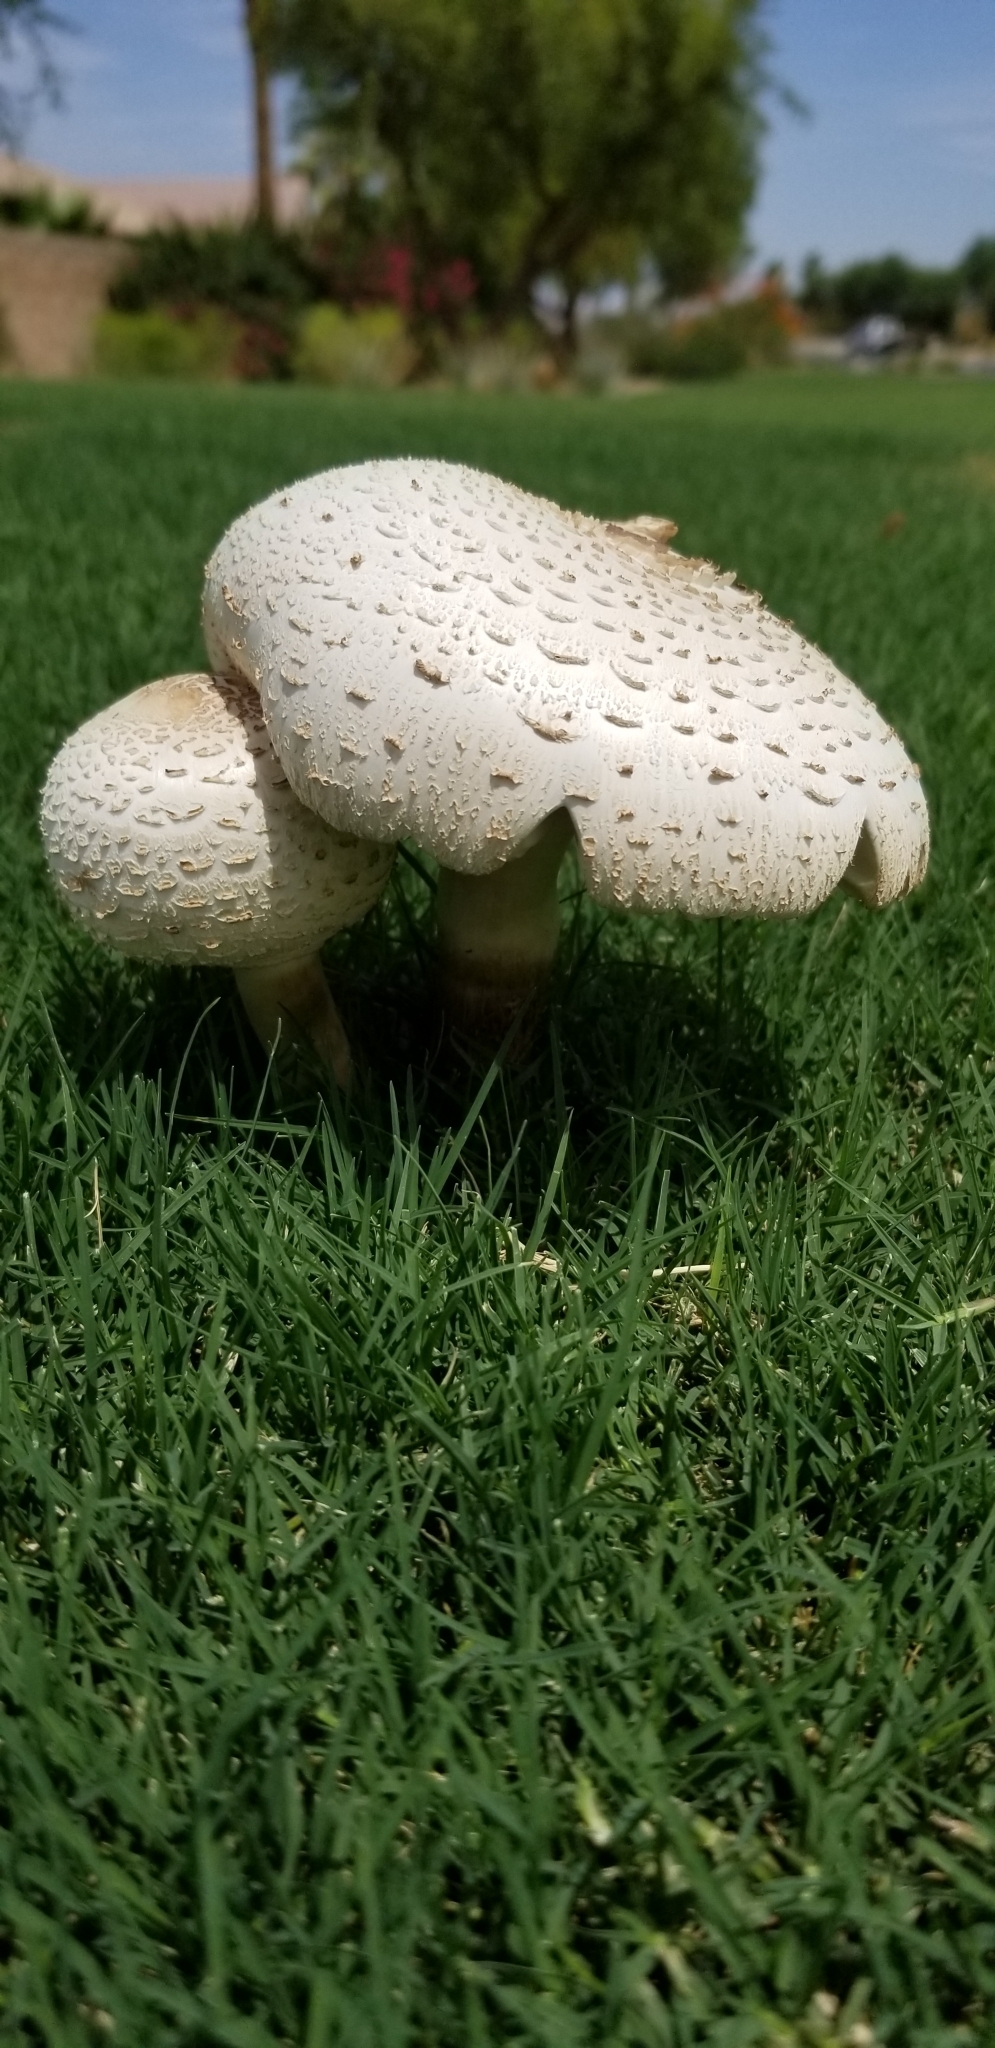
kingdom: Fungi
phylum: Basidiomycota
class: Agaricomycetes
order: Agaricales
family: Agaricaceae
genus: Chlorophyllum
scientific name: Chlorophyllum molybdites
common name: False parasol
